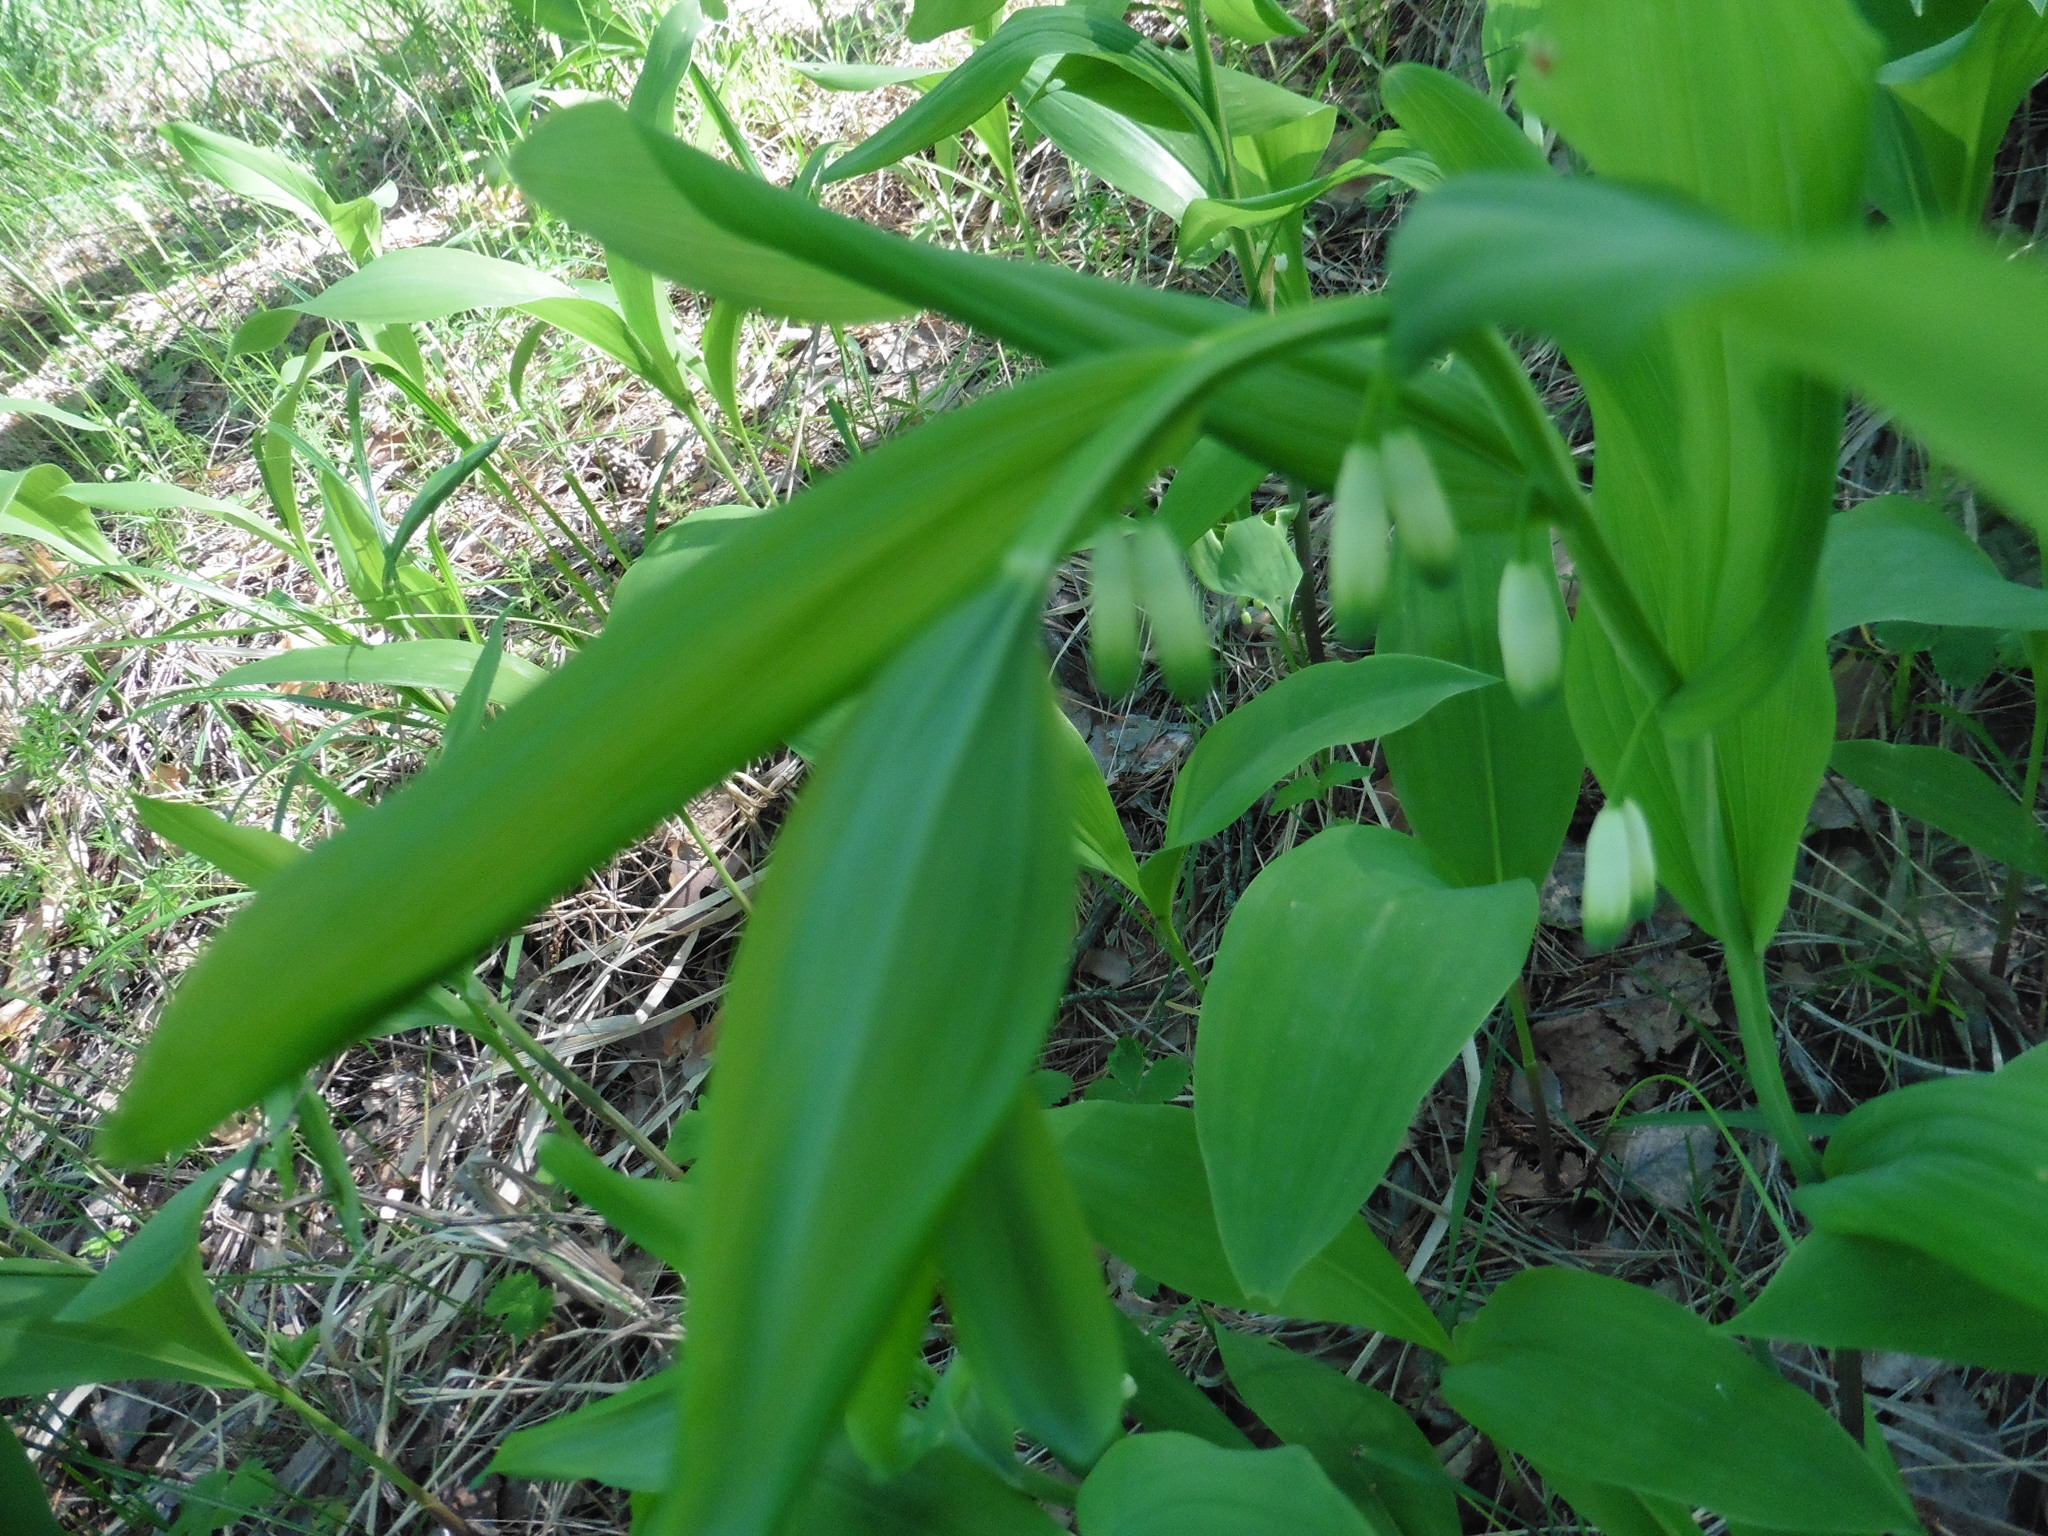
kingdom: Plantae
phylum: Tracheophyta
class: Liliopsida
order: Asparagales
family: Asparagaceae
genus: Polygonatum
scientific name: Polygonatum multiflorum
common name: Solomon's-seal
